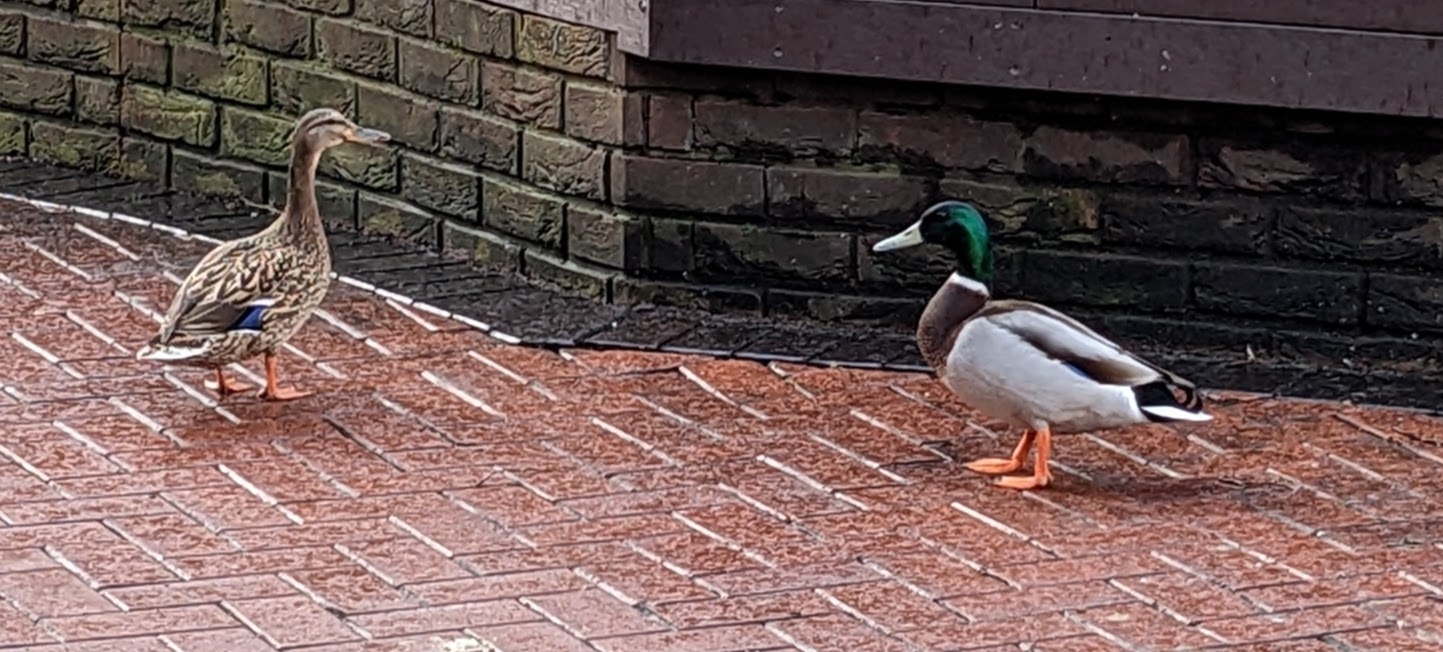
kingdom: Animalia
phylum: Chordata
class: Aves
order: Anseriformes
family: Anatidae
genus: Anas
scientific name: Anas platyrhynchos
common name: Mallard
